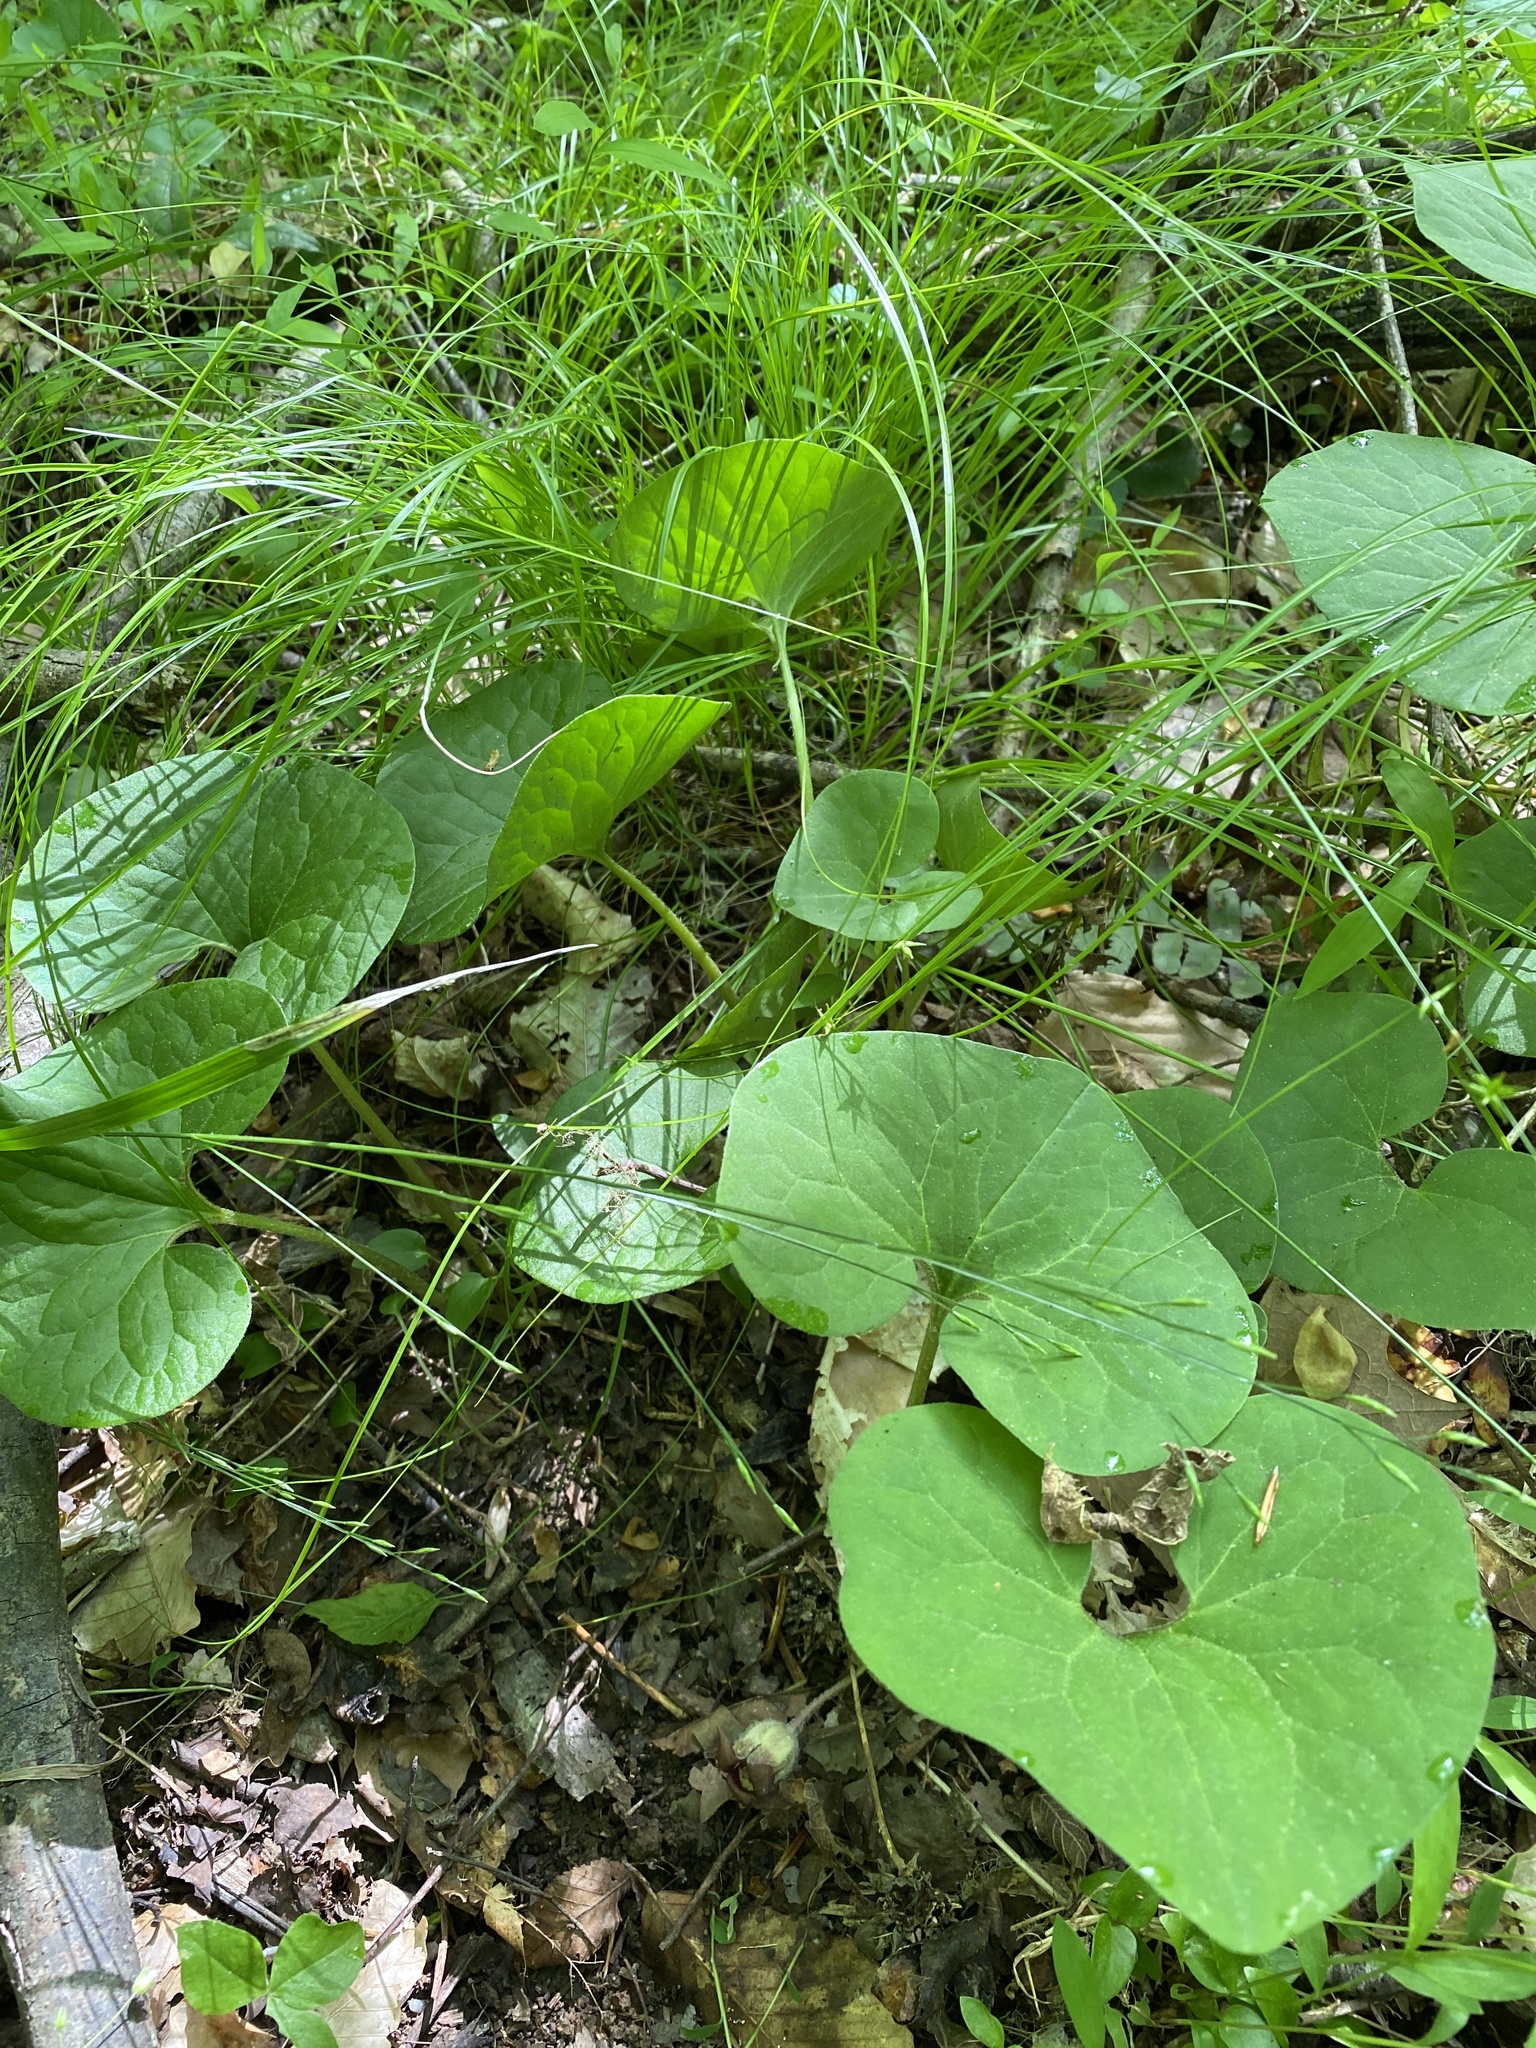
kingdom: Plantae
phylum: Tracheophyta
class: Magnoliopsida
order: Piperales
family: Aristolochiaceae
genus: Asarum
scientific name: Asarum canadense
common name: Wild ginger
